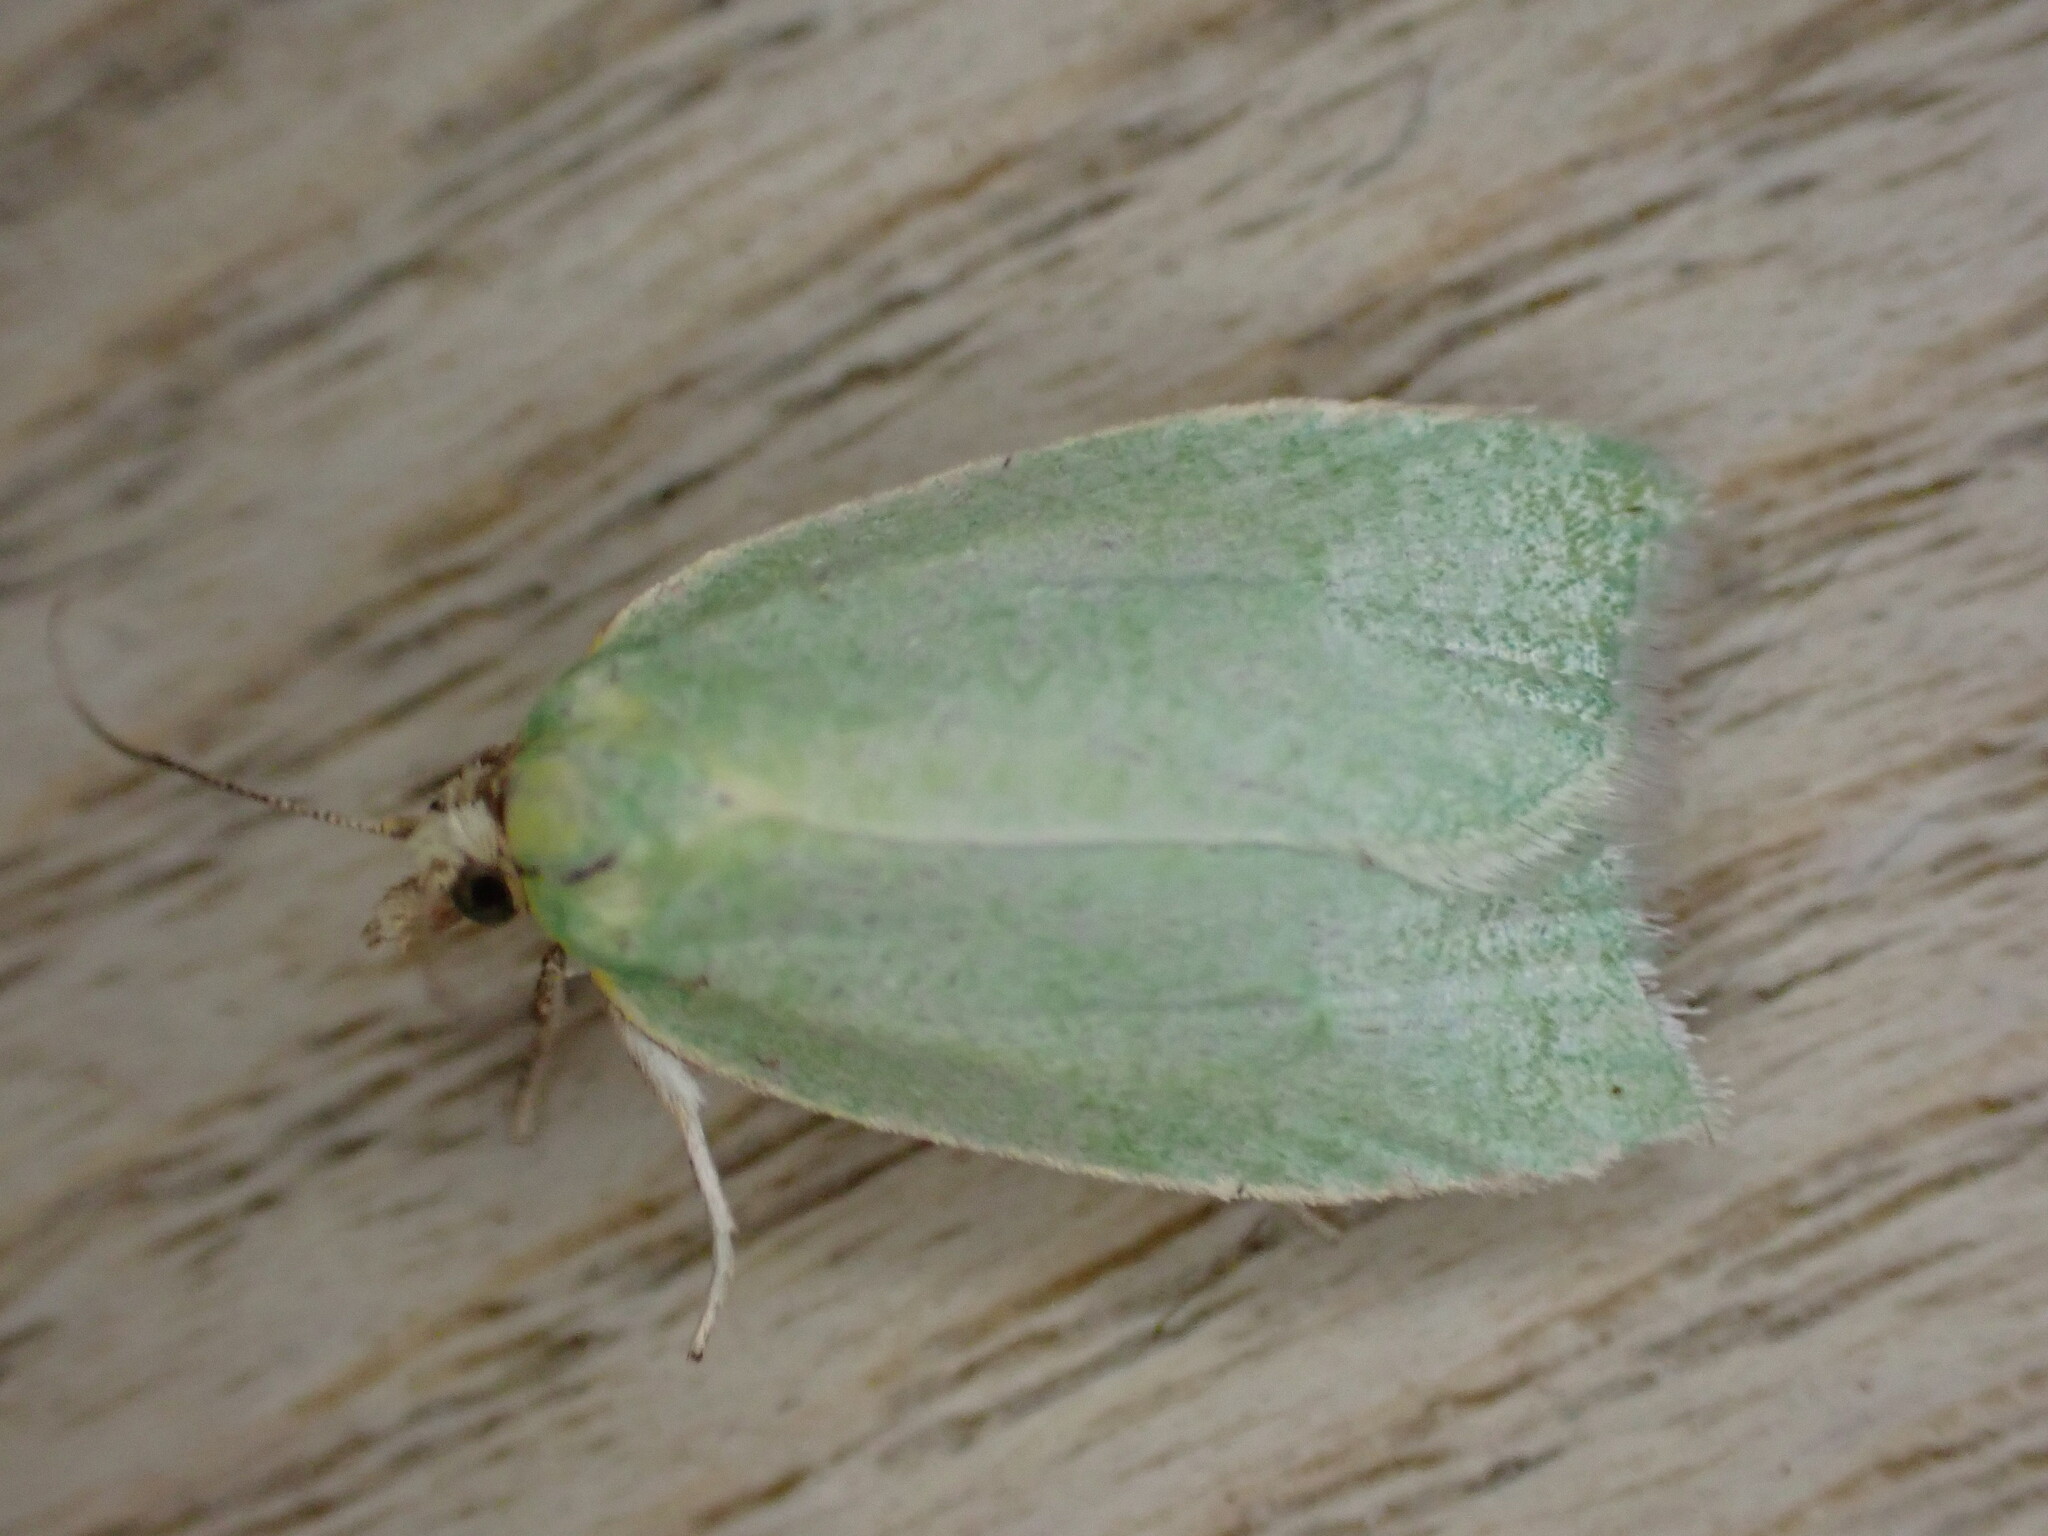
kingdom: Animalia
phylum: Arthropoda
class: Insecta
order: Lepidoptera
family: Tortricidae
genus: Tortrix
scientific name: Tortrix viridana
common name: Green oak tortrix
